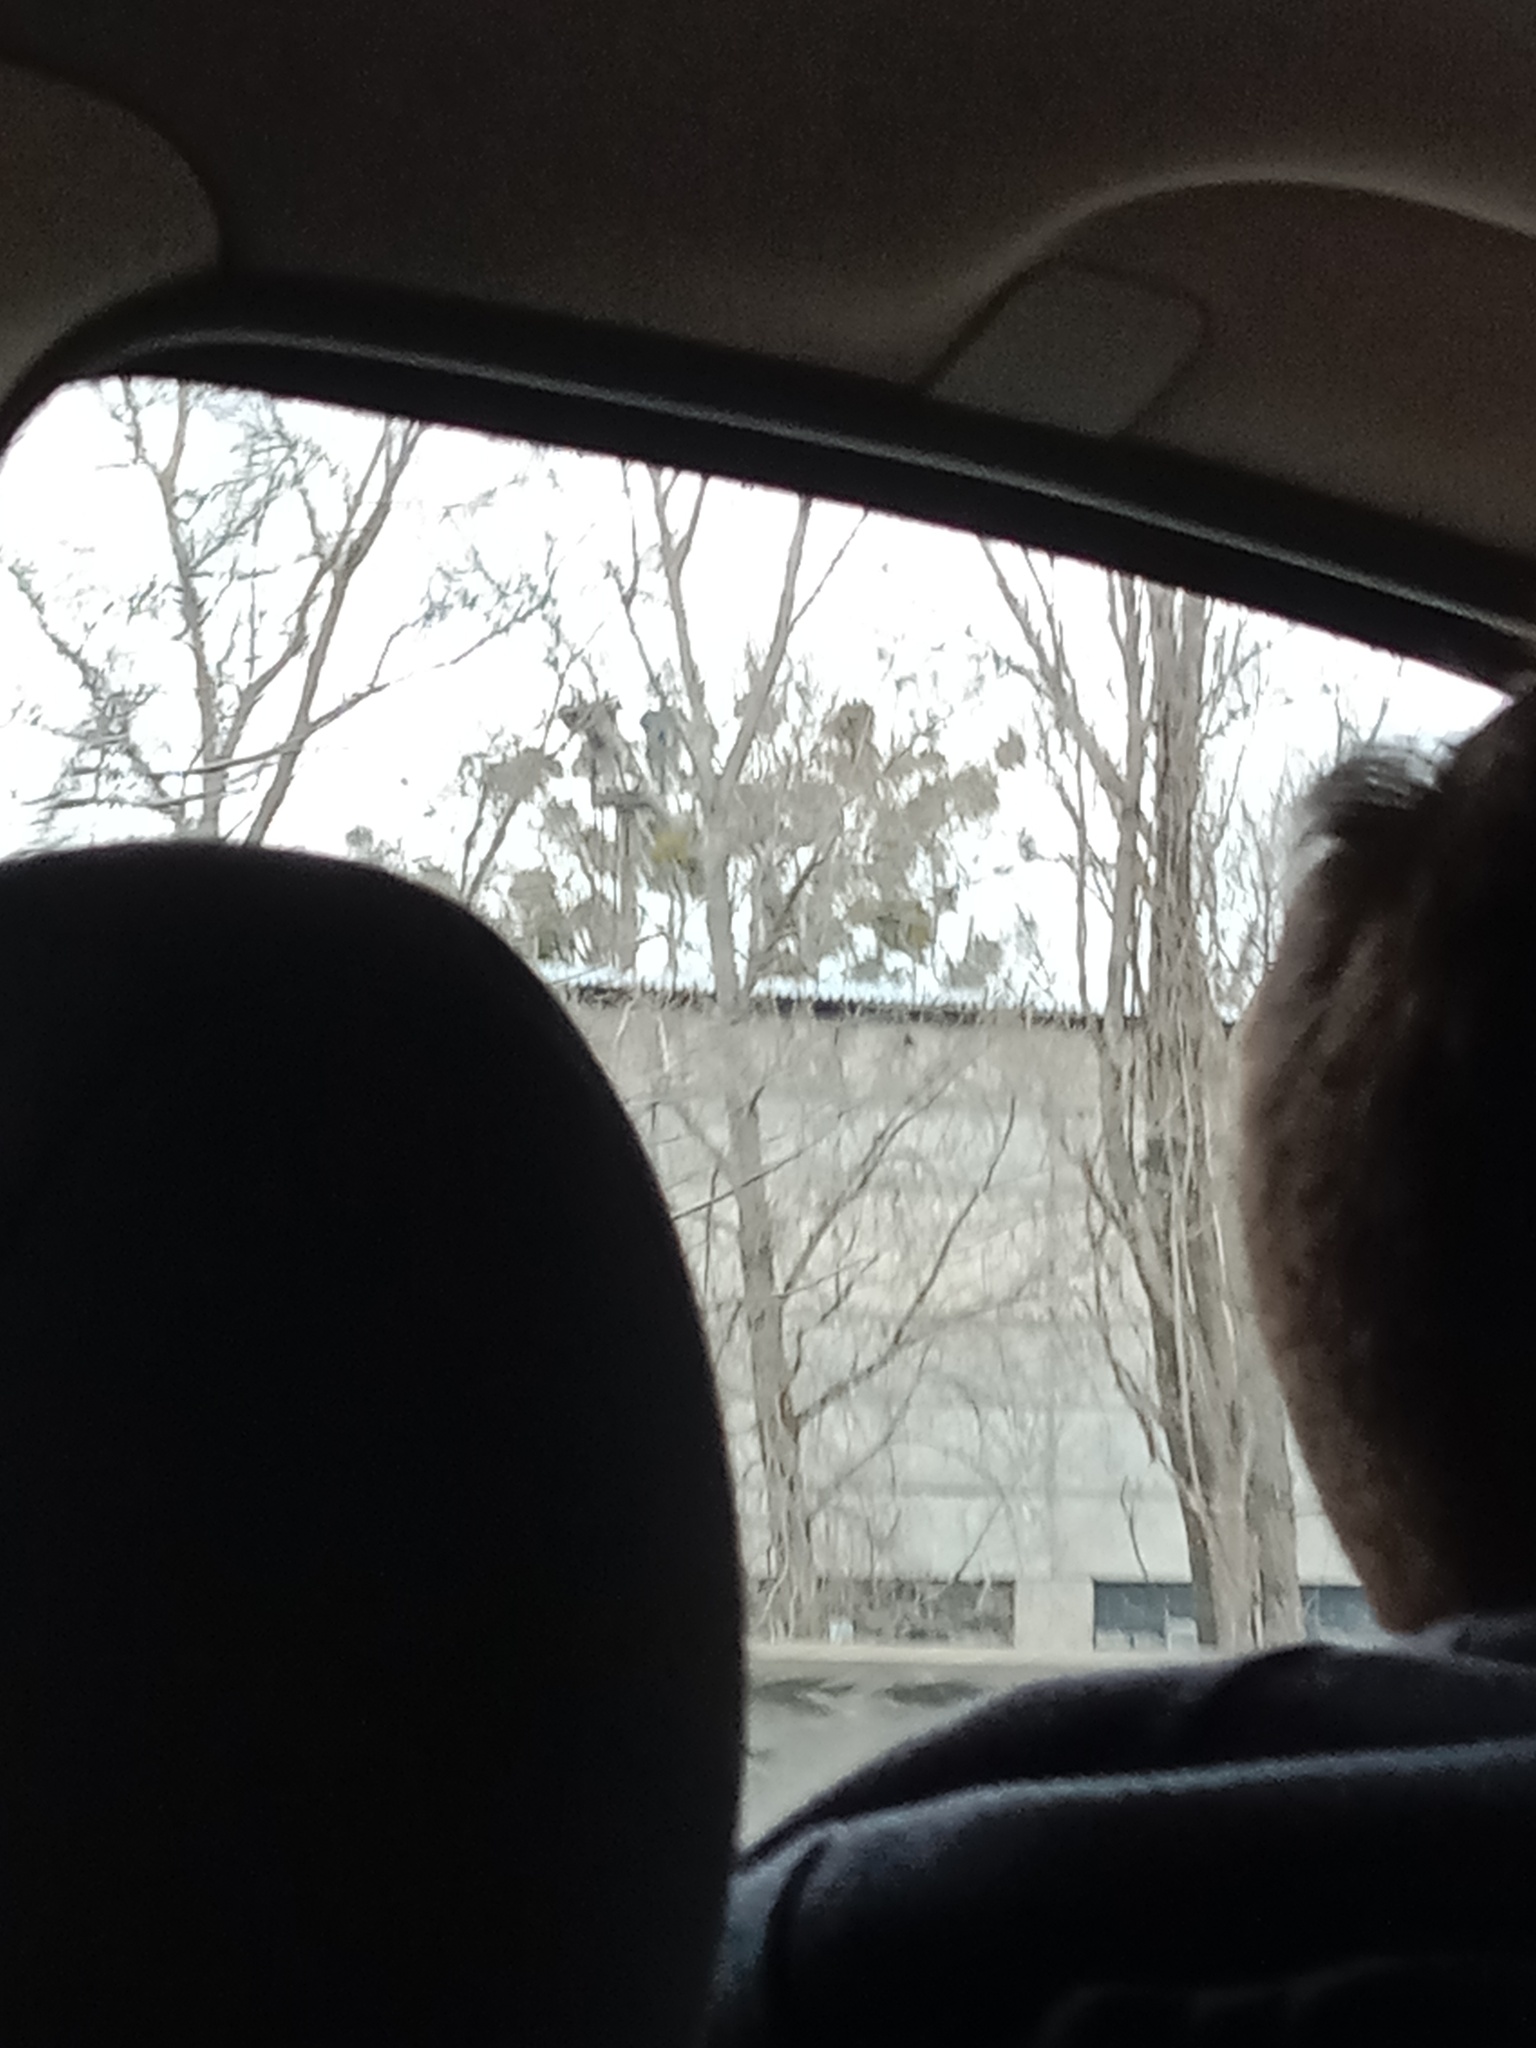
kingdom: Plantae
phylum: Tracheophyta
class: Magnoliopsida
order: Santalales
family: Viscaceae
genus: Viscum
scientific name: Viscum album
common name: Mistletoe
